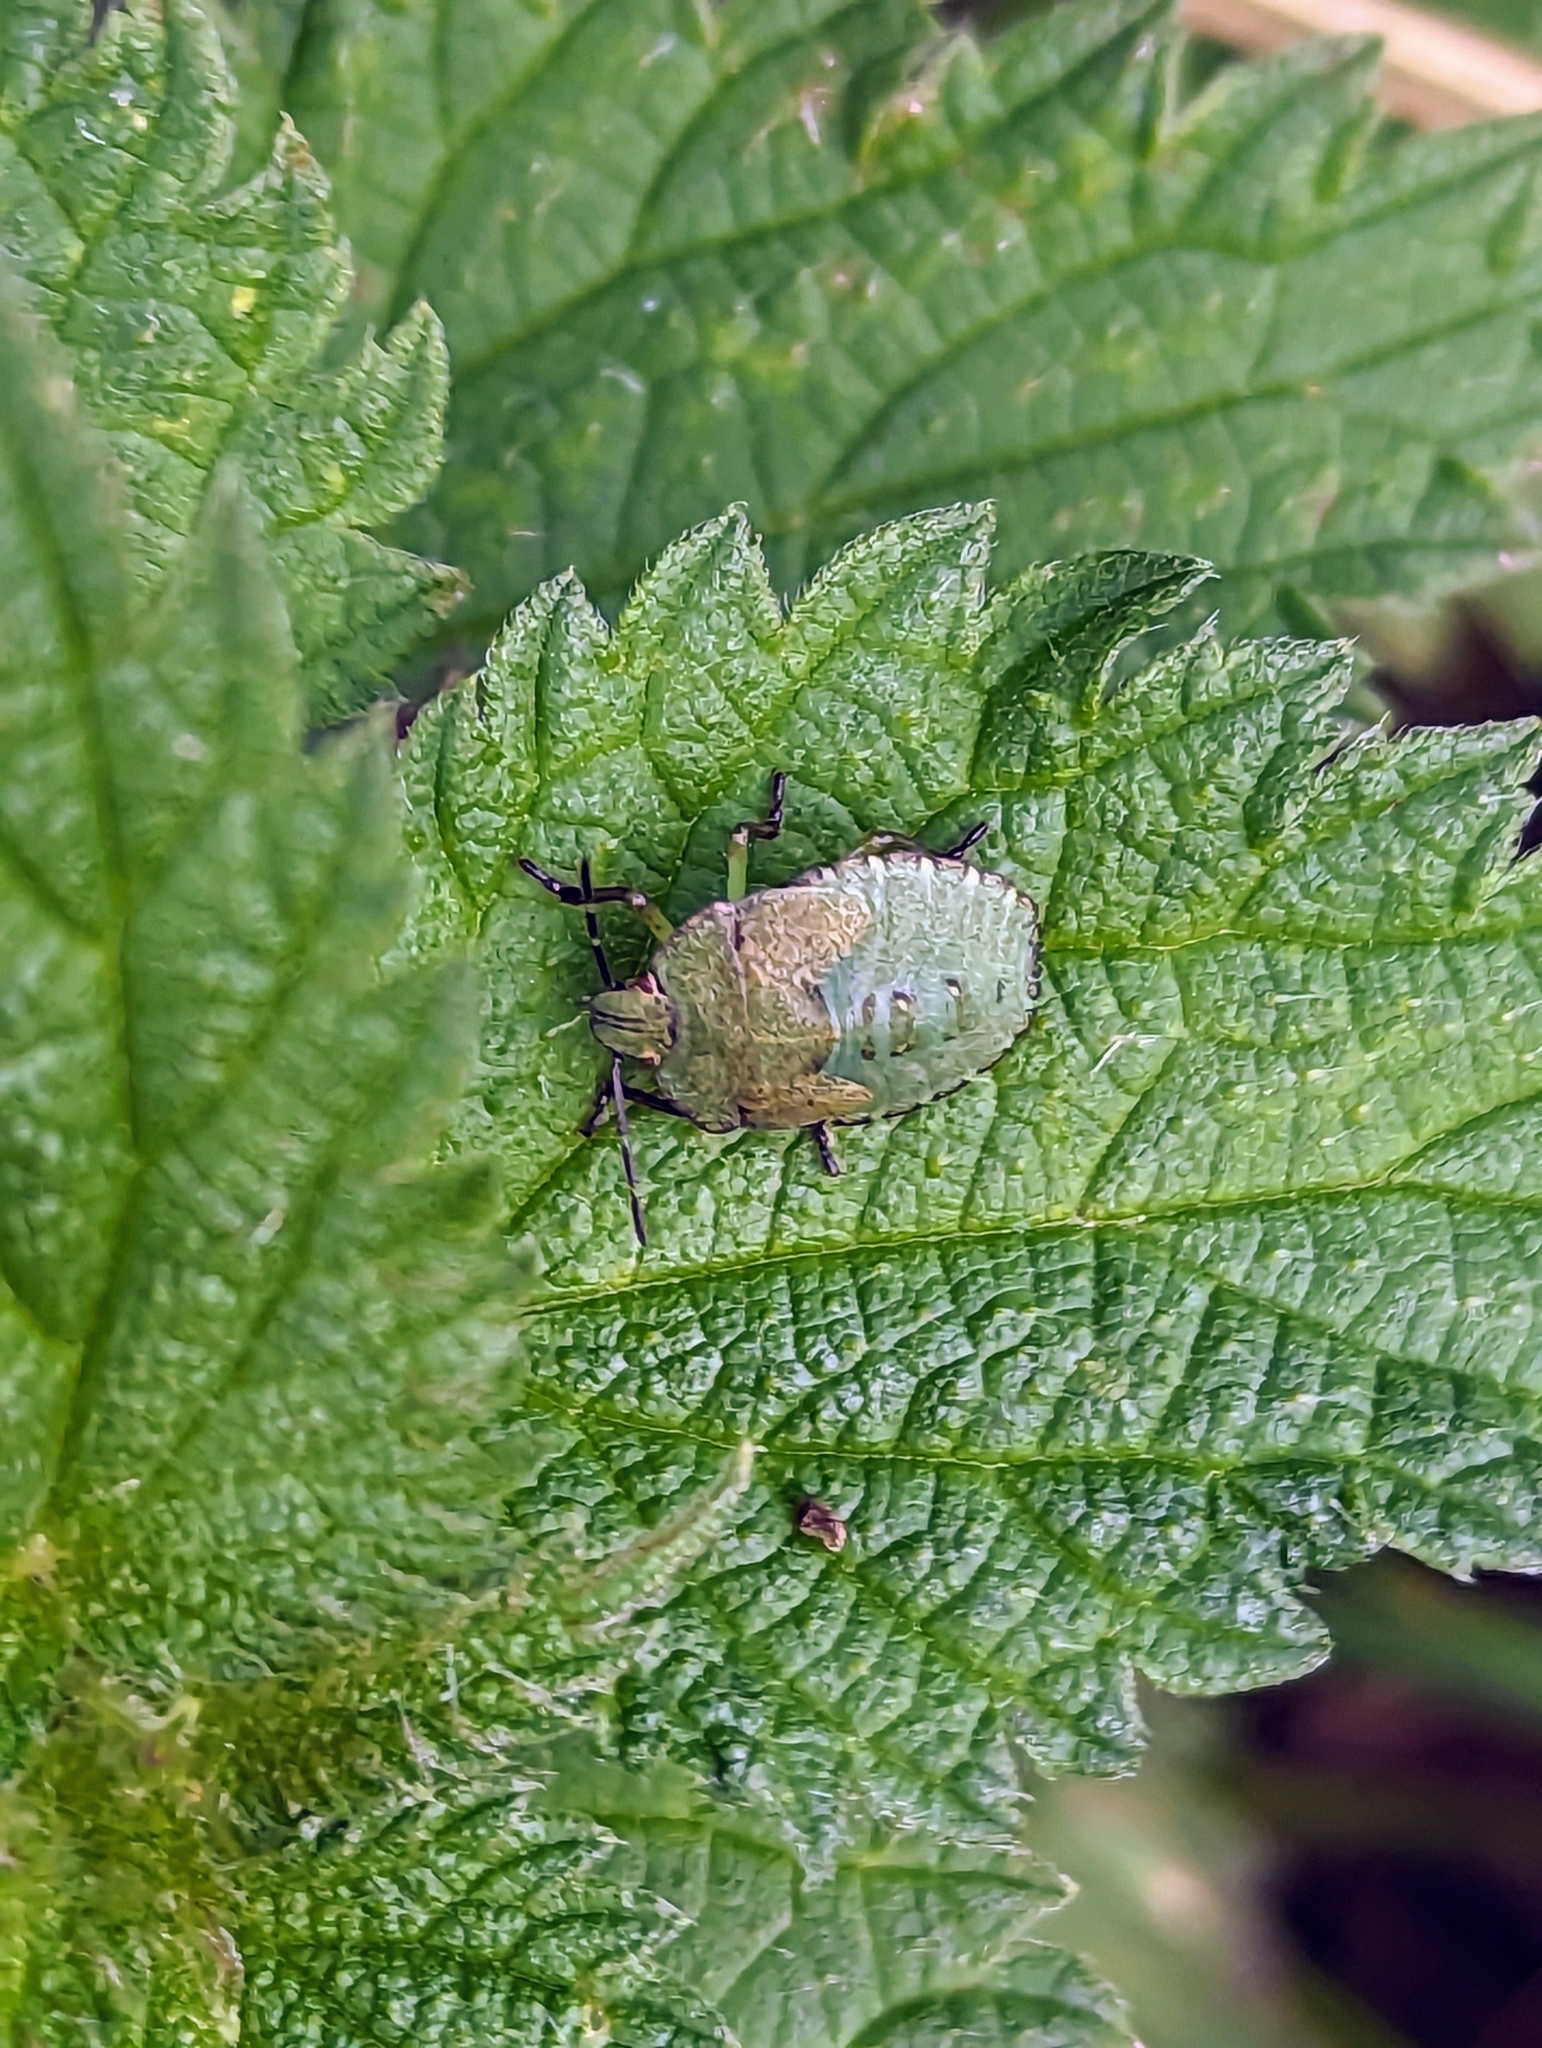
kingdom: Animalia
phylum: Arthropoda
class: Insecta
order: Hemiptera
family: Pentatomidae
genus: Palomena
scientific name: Palomena prasina
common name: Green shieldbug
